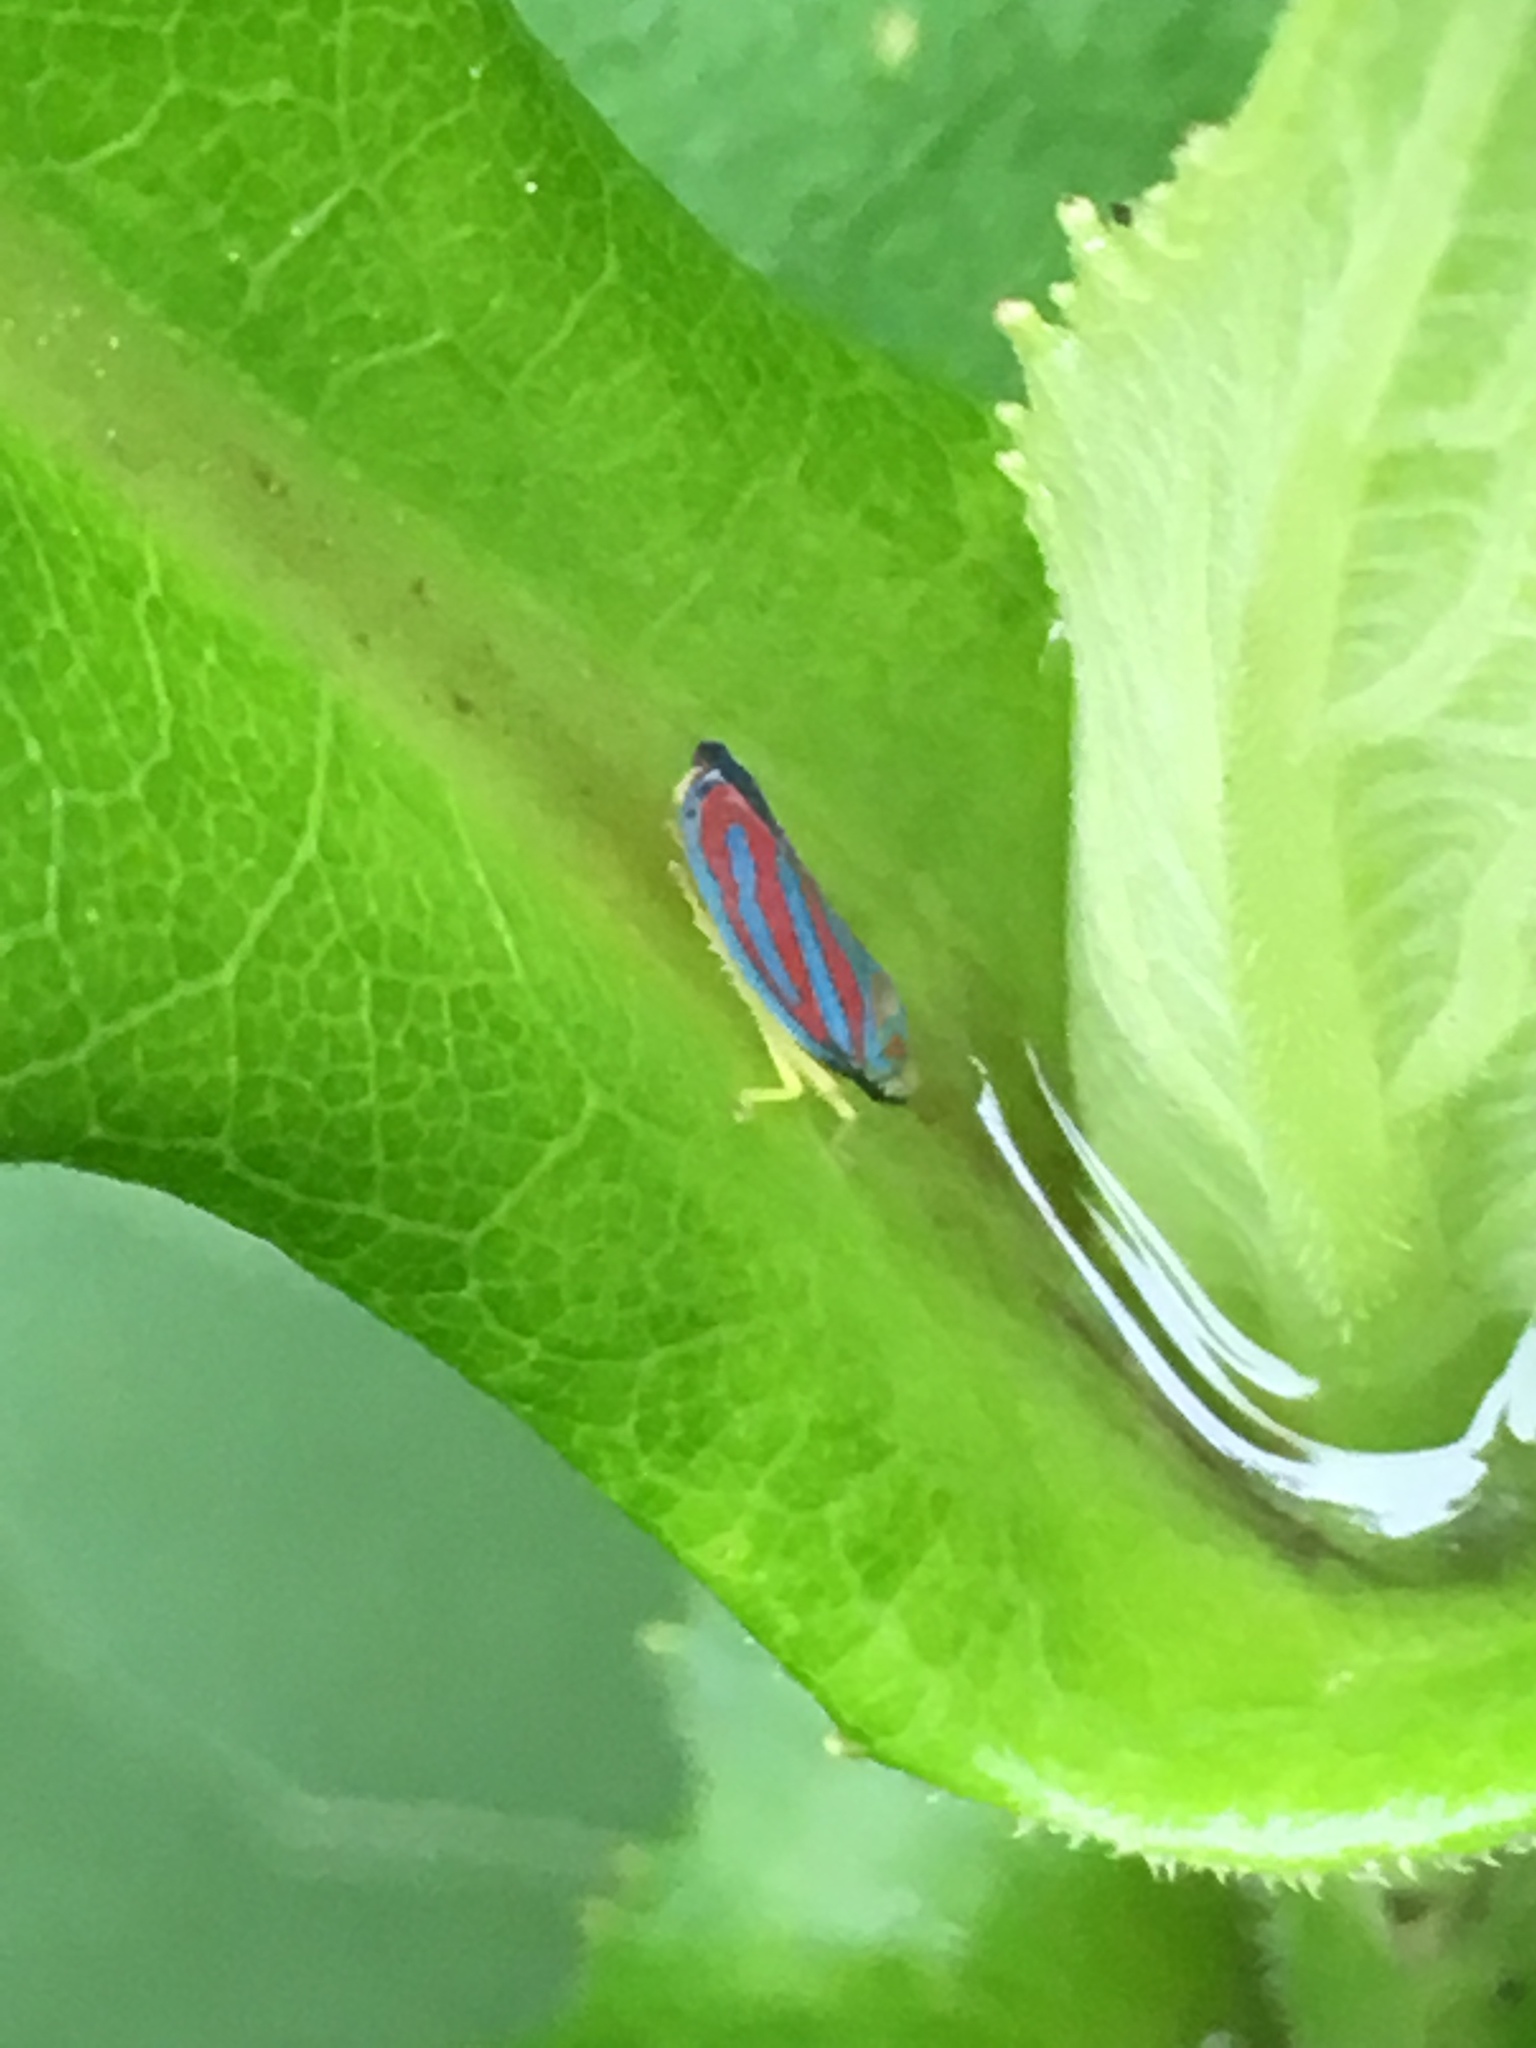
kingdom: Animalia
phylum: Arthropoda
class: Insecta
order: Hemiptera
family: Cicadellidae
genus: Graphocephala
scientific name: Graphocephala coccinea
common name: Candy-striped leafhopper
